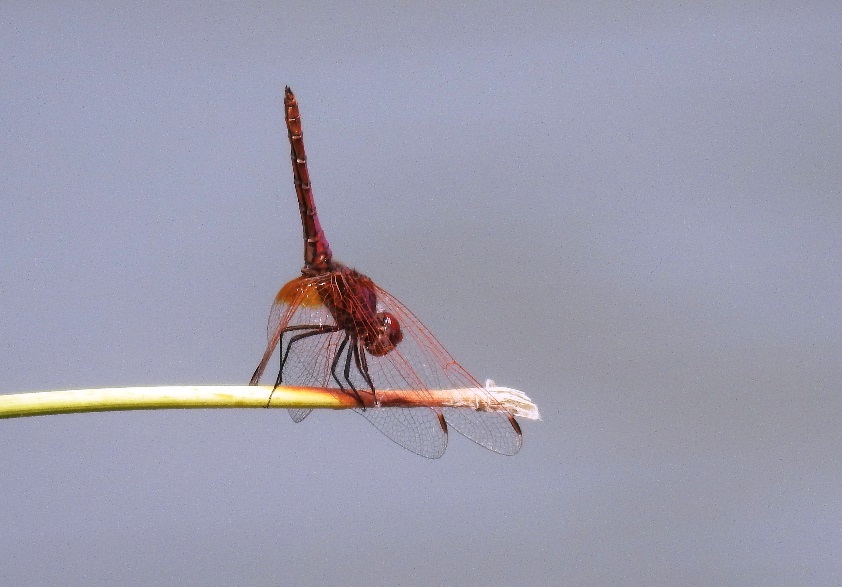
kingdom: Animalia
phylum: Arthropoda
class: Insecta
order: Odonata
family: Libellulidae
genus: Trithemis
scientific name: Trithemis annulata
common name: Violet dropwing
